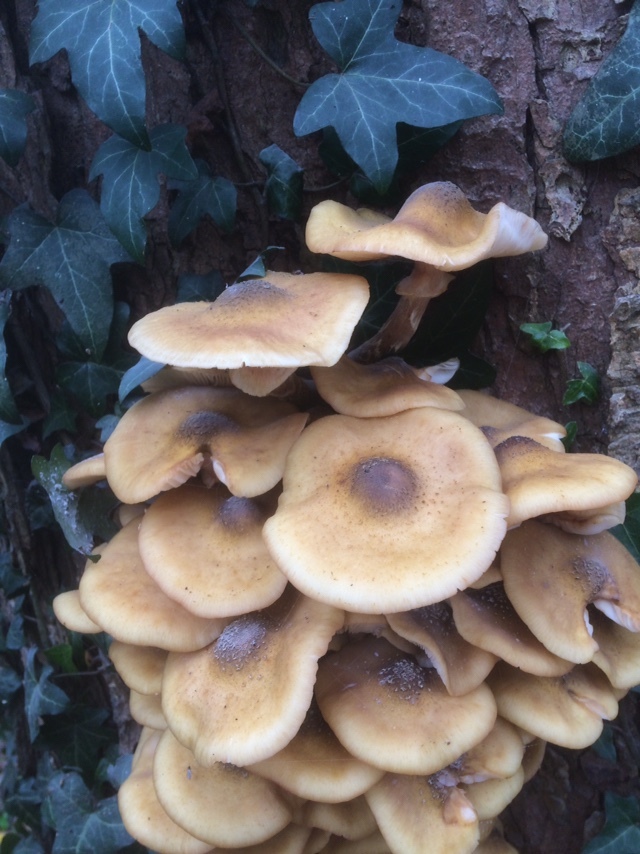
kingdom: Fungi
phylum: Basidiomycota
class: Agaricomycetes
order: Agaricales
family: Physalacriaceae
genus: Armillaria
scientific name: Armillaria mellea
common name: Honey fungus
